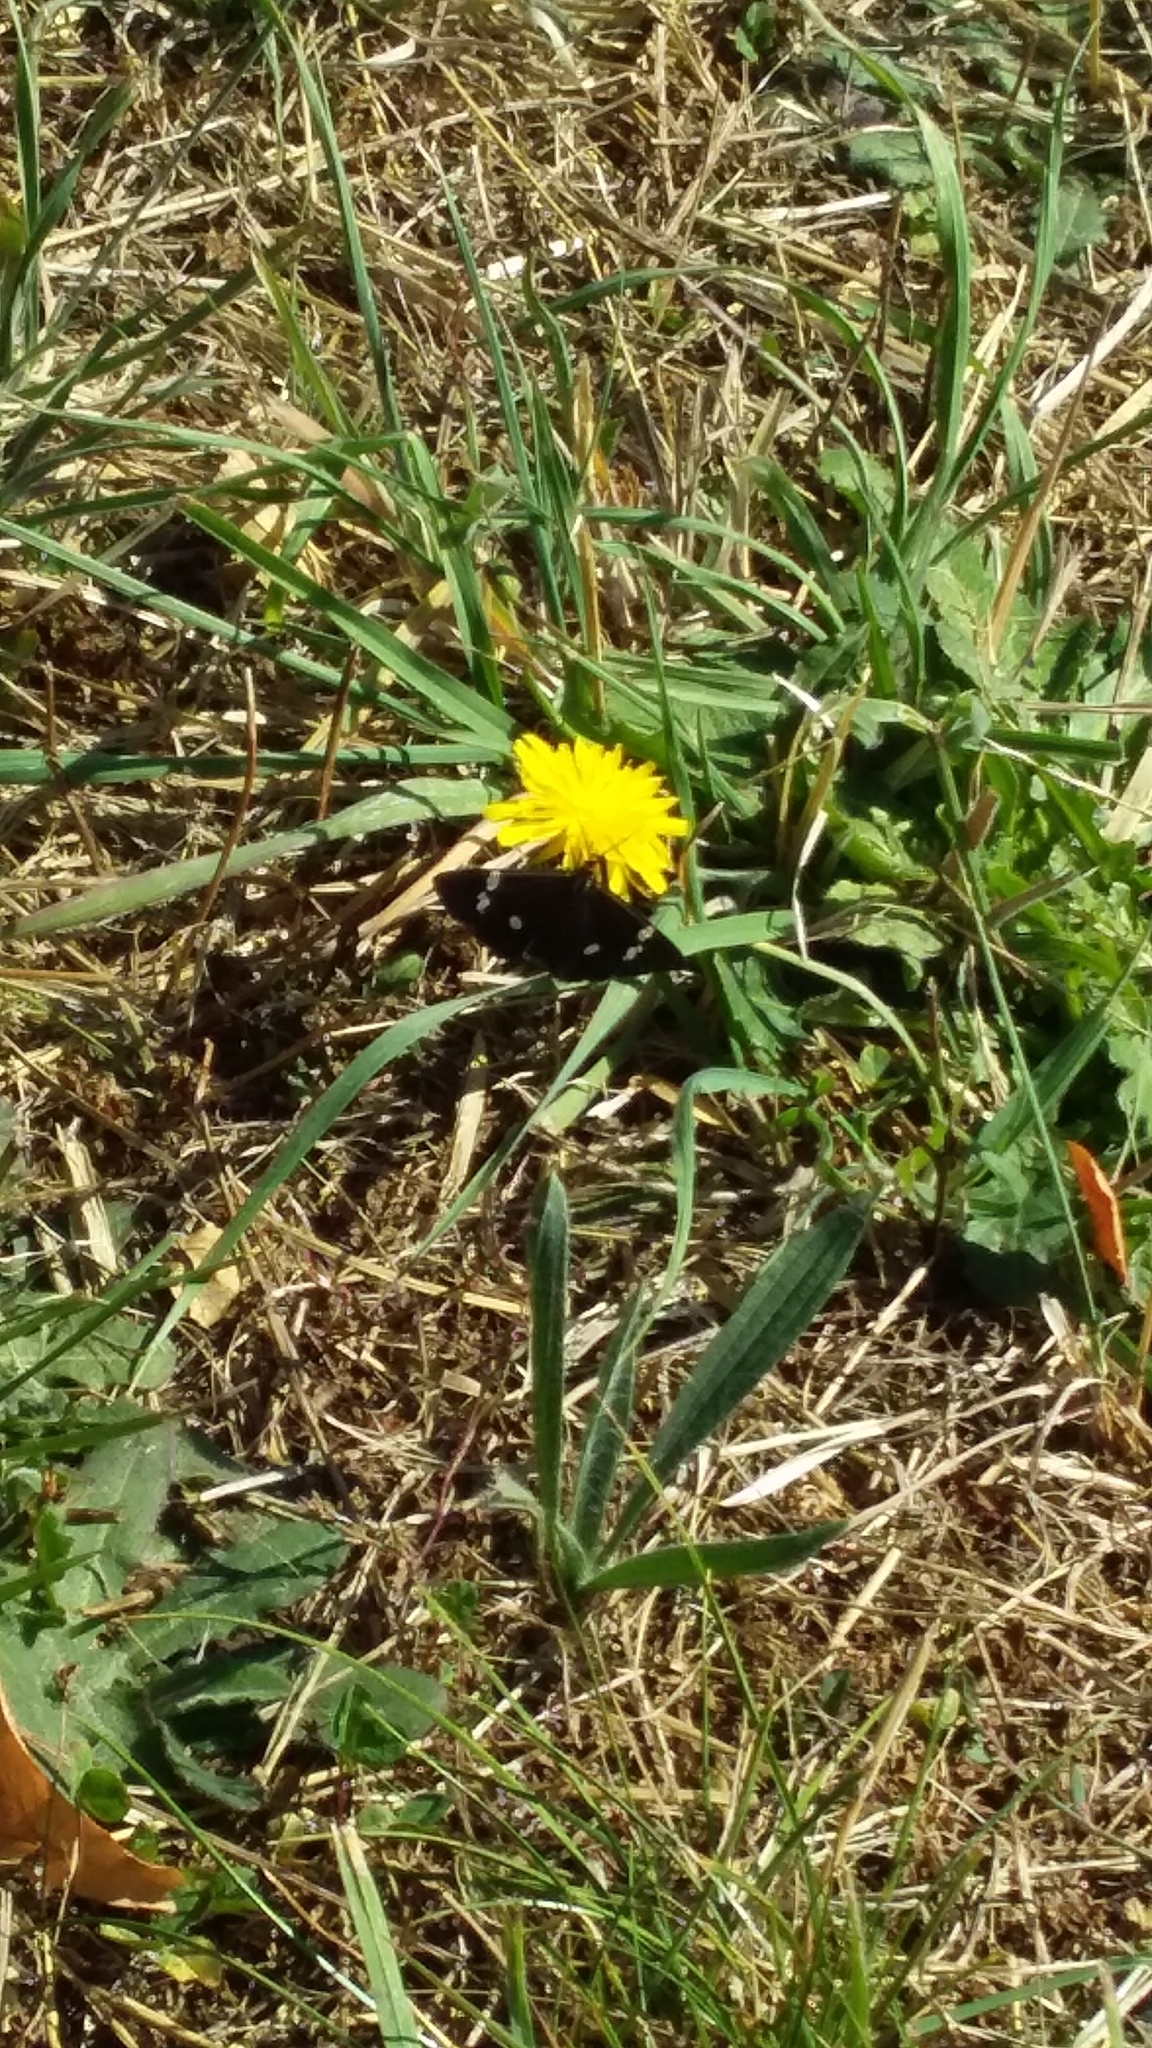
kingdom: Animalia
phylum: Arthropoda
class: Insecta
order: Lepidoptera
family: Erebidae
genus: Nyctemera
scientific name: Nyctemera annulatum
